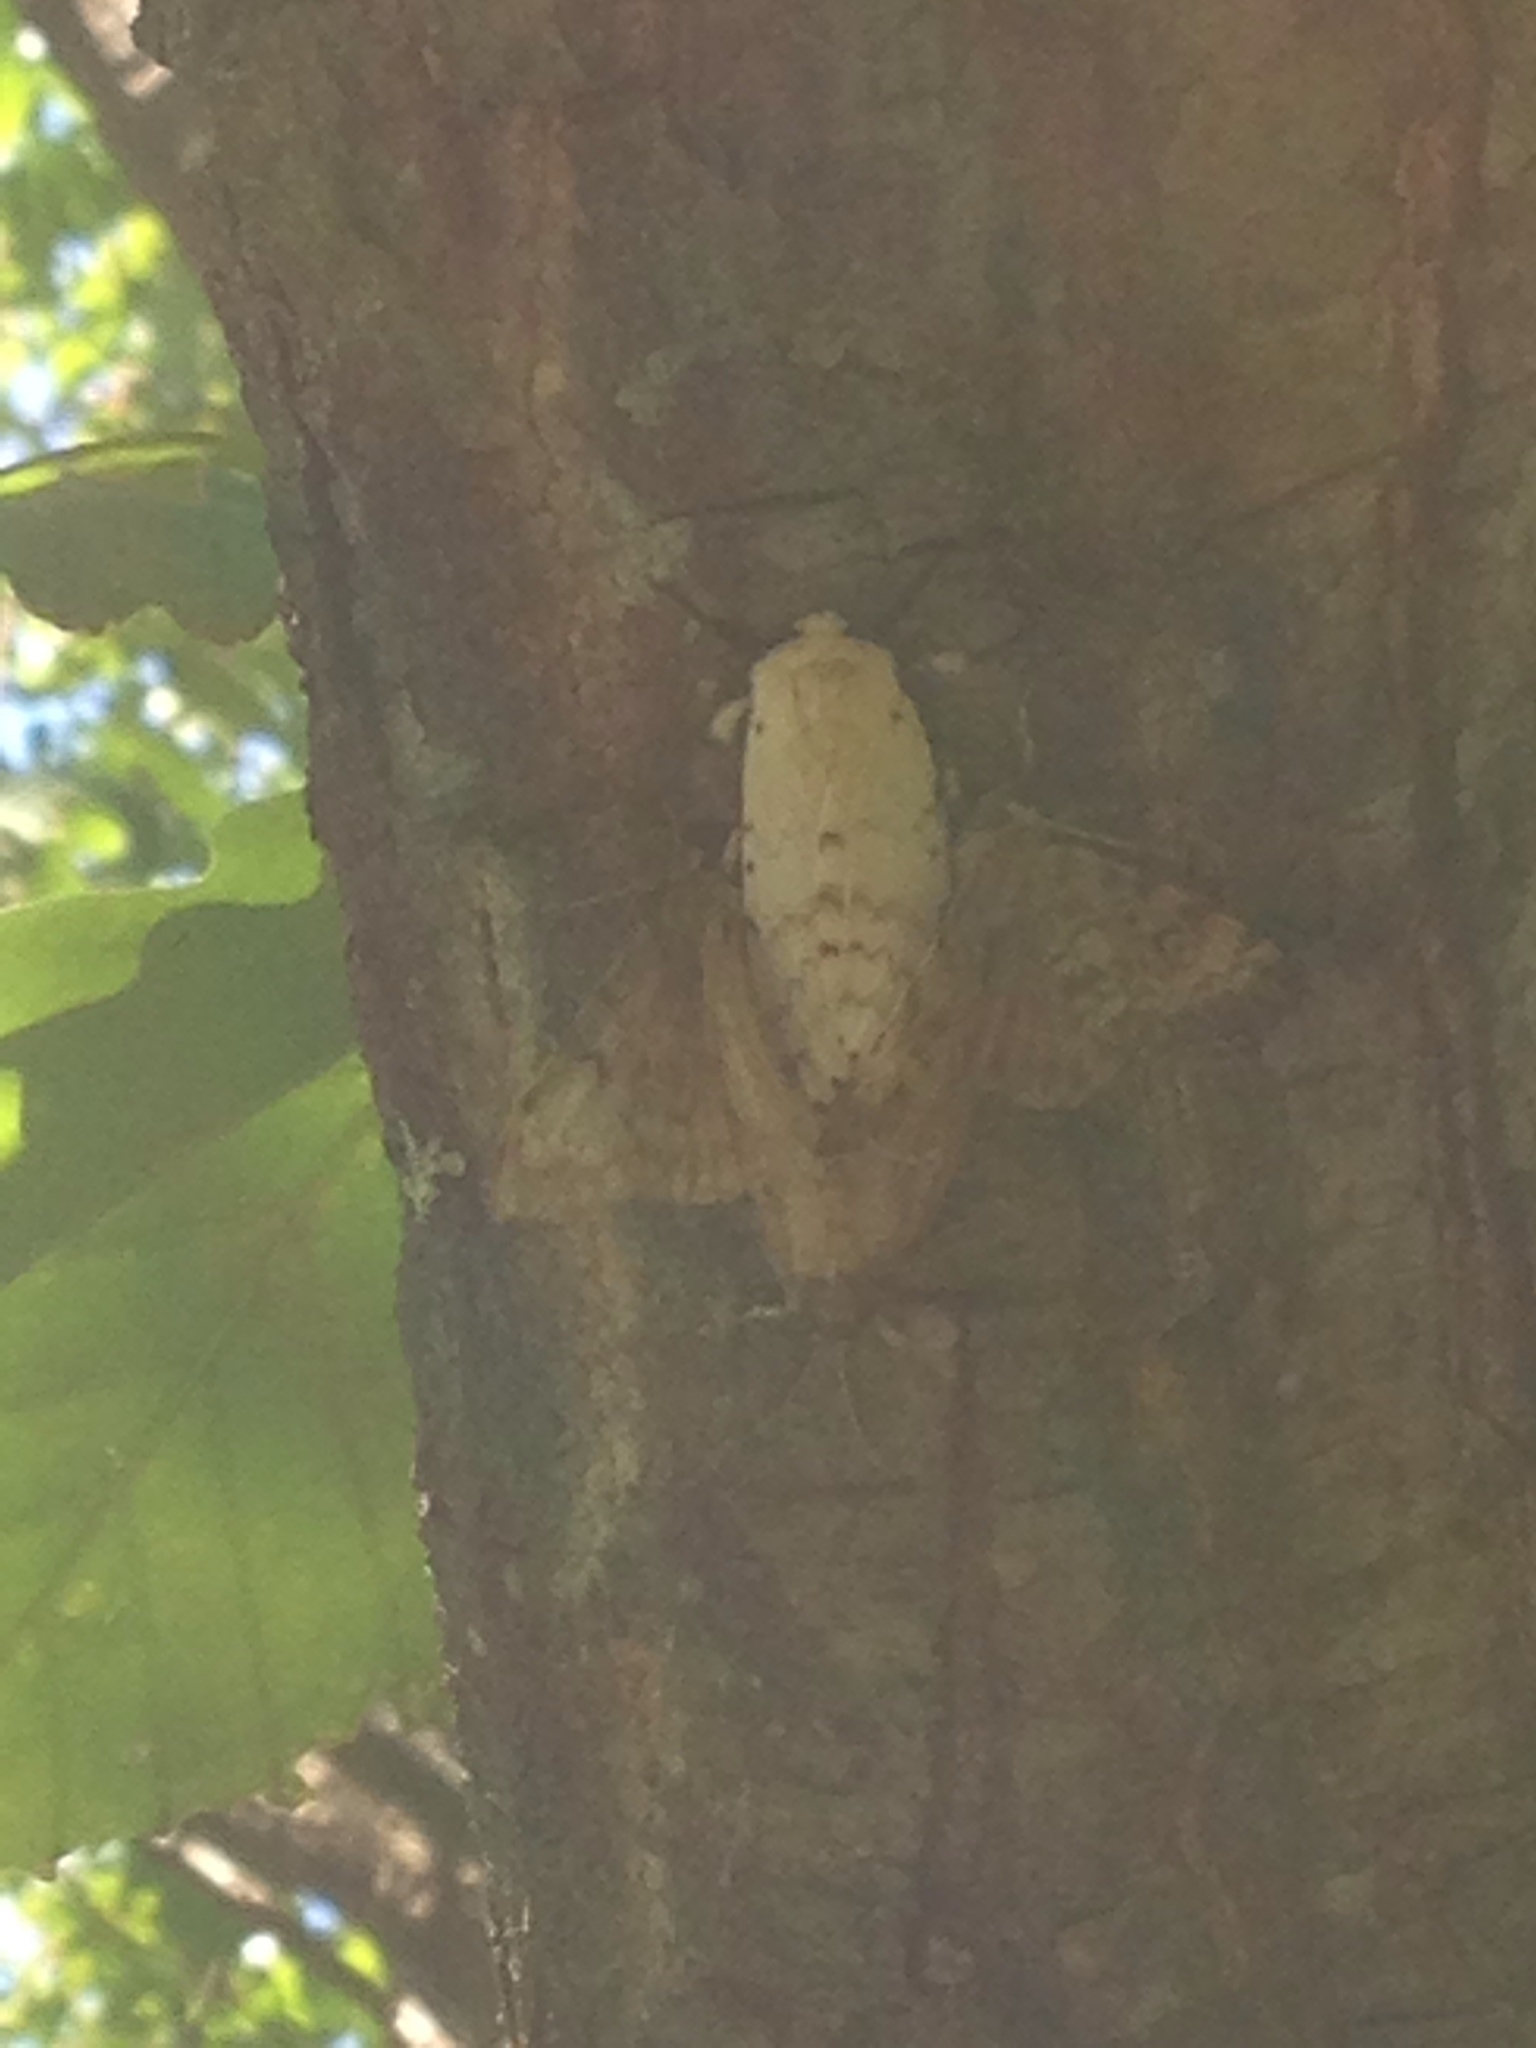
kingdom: Animalia
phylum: Arthropoda
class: Insecta
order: Lepidoptera
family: Erebidae
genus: Lymantria
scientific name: Lymantria dispar
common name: Gypsy moth
